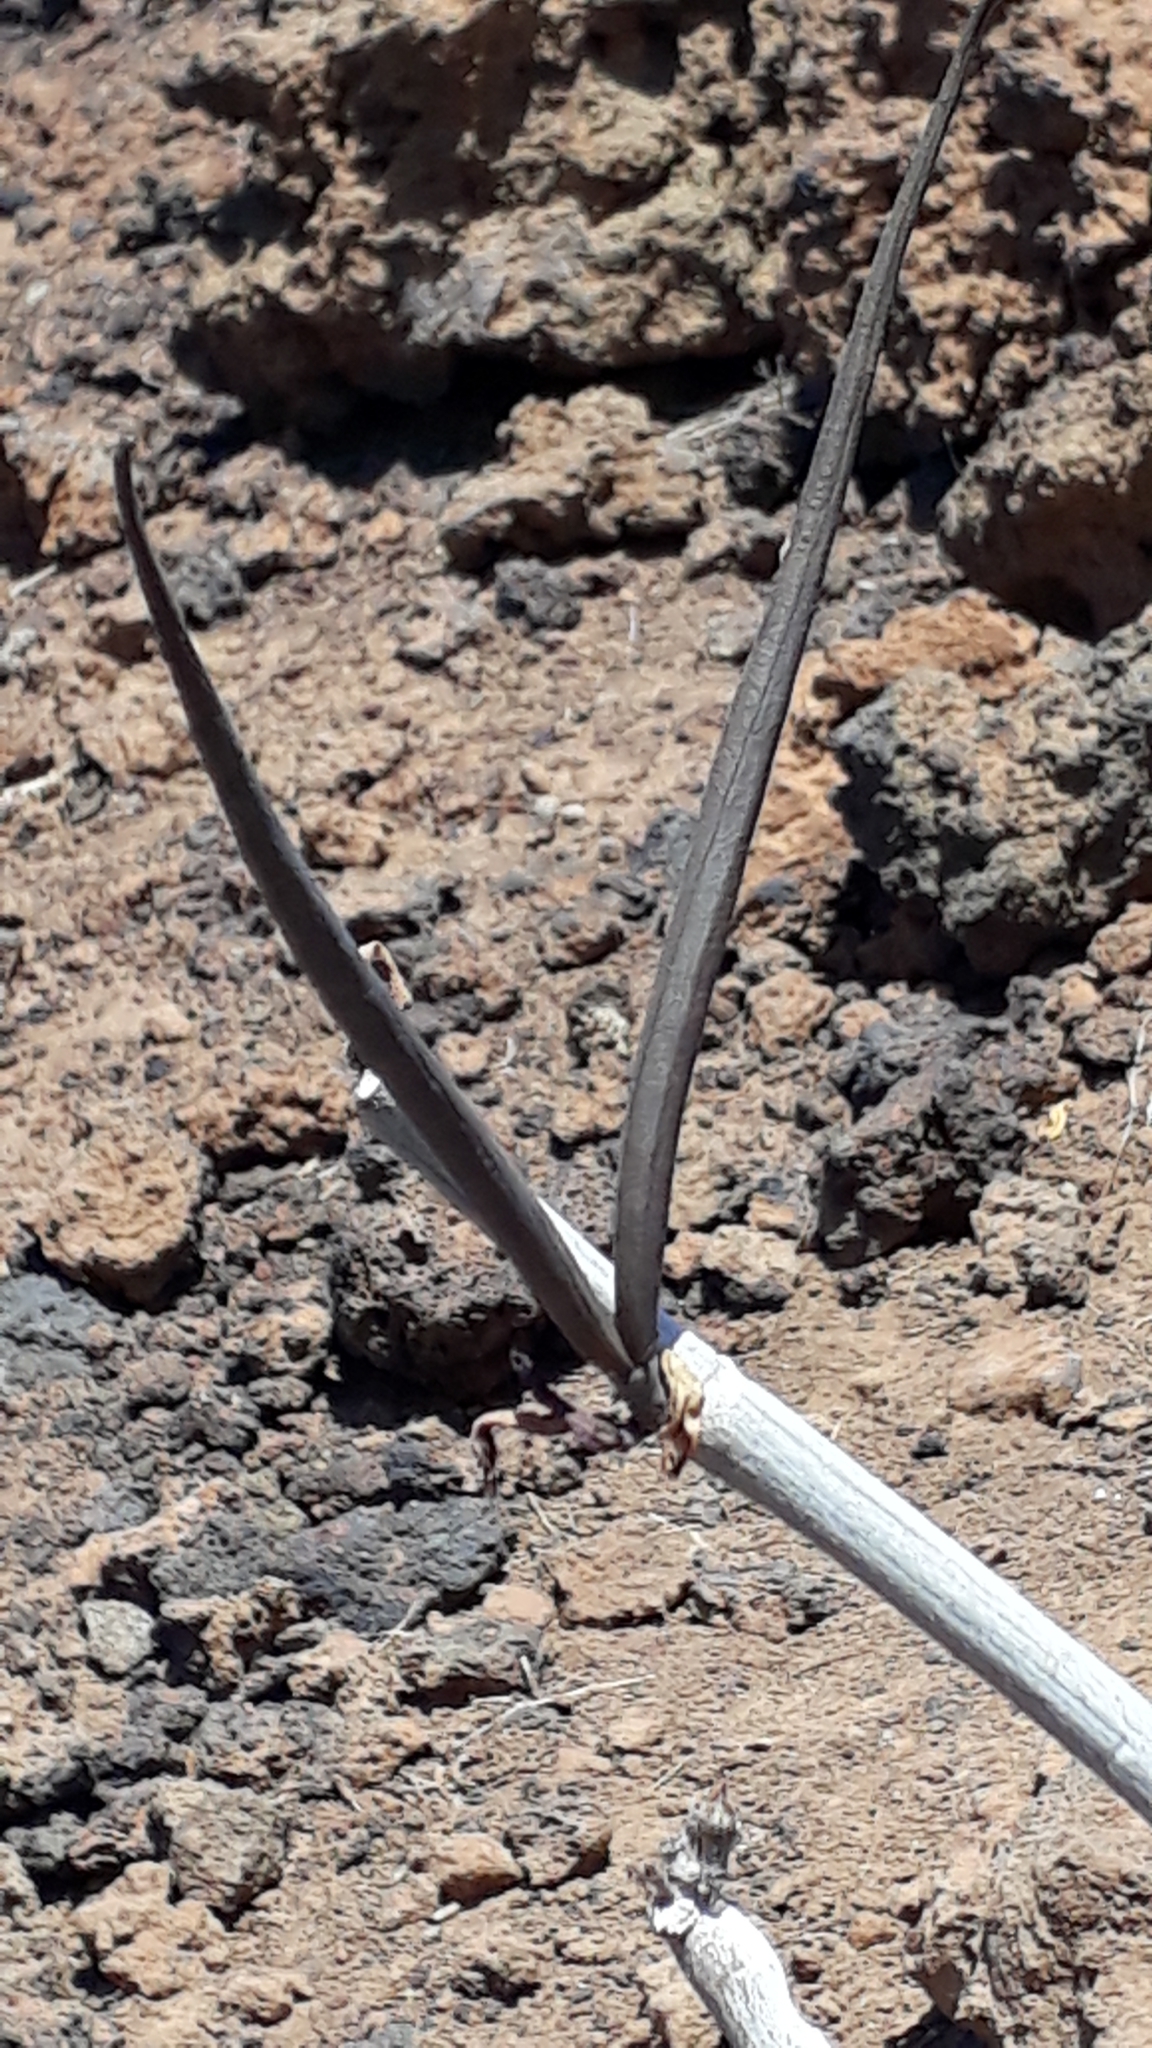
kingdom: Plantae
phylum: Tracheophyta
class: Magnoliopsida
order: Gentianales
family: Apocynaceae
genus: Ceropegia
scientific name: Ceropegia fusca
